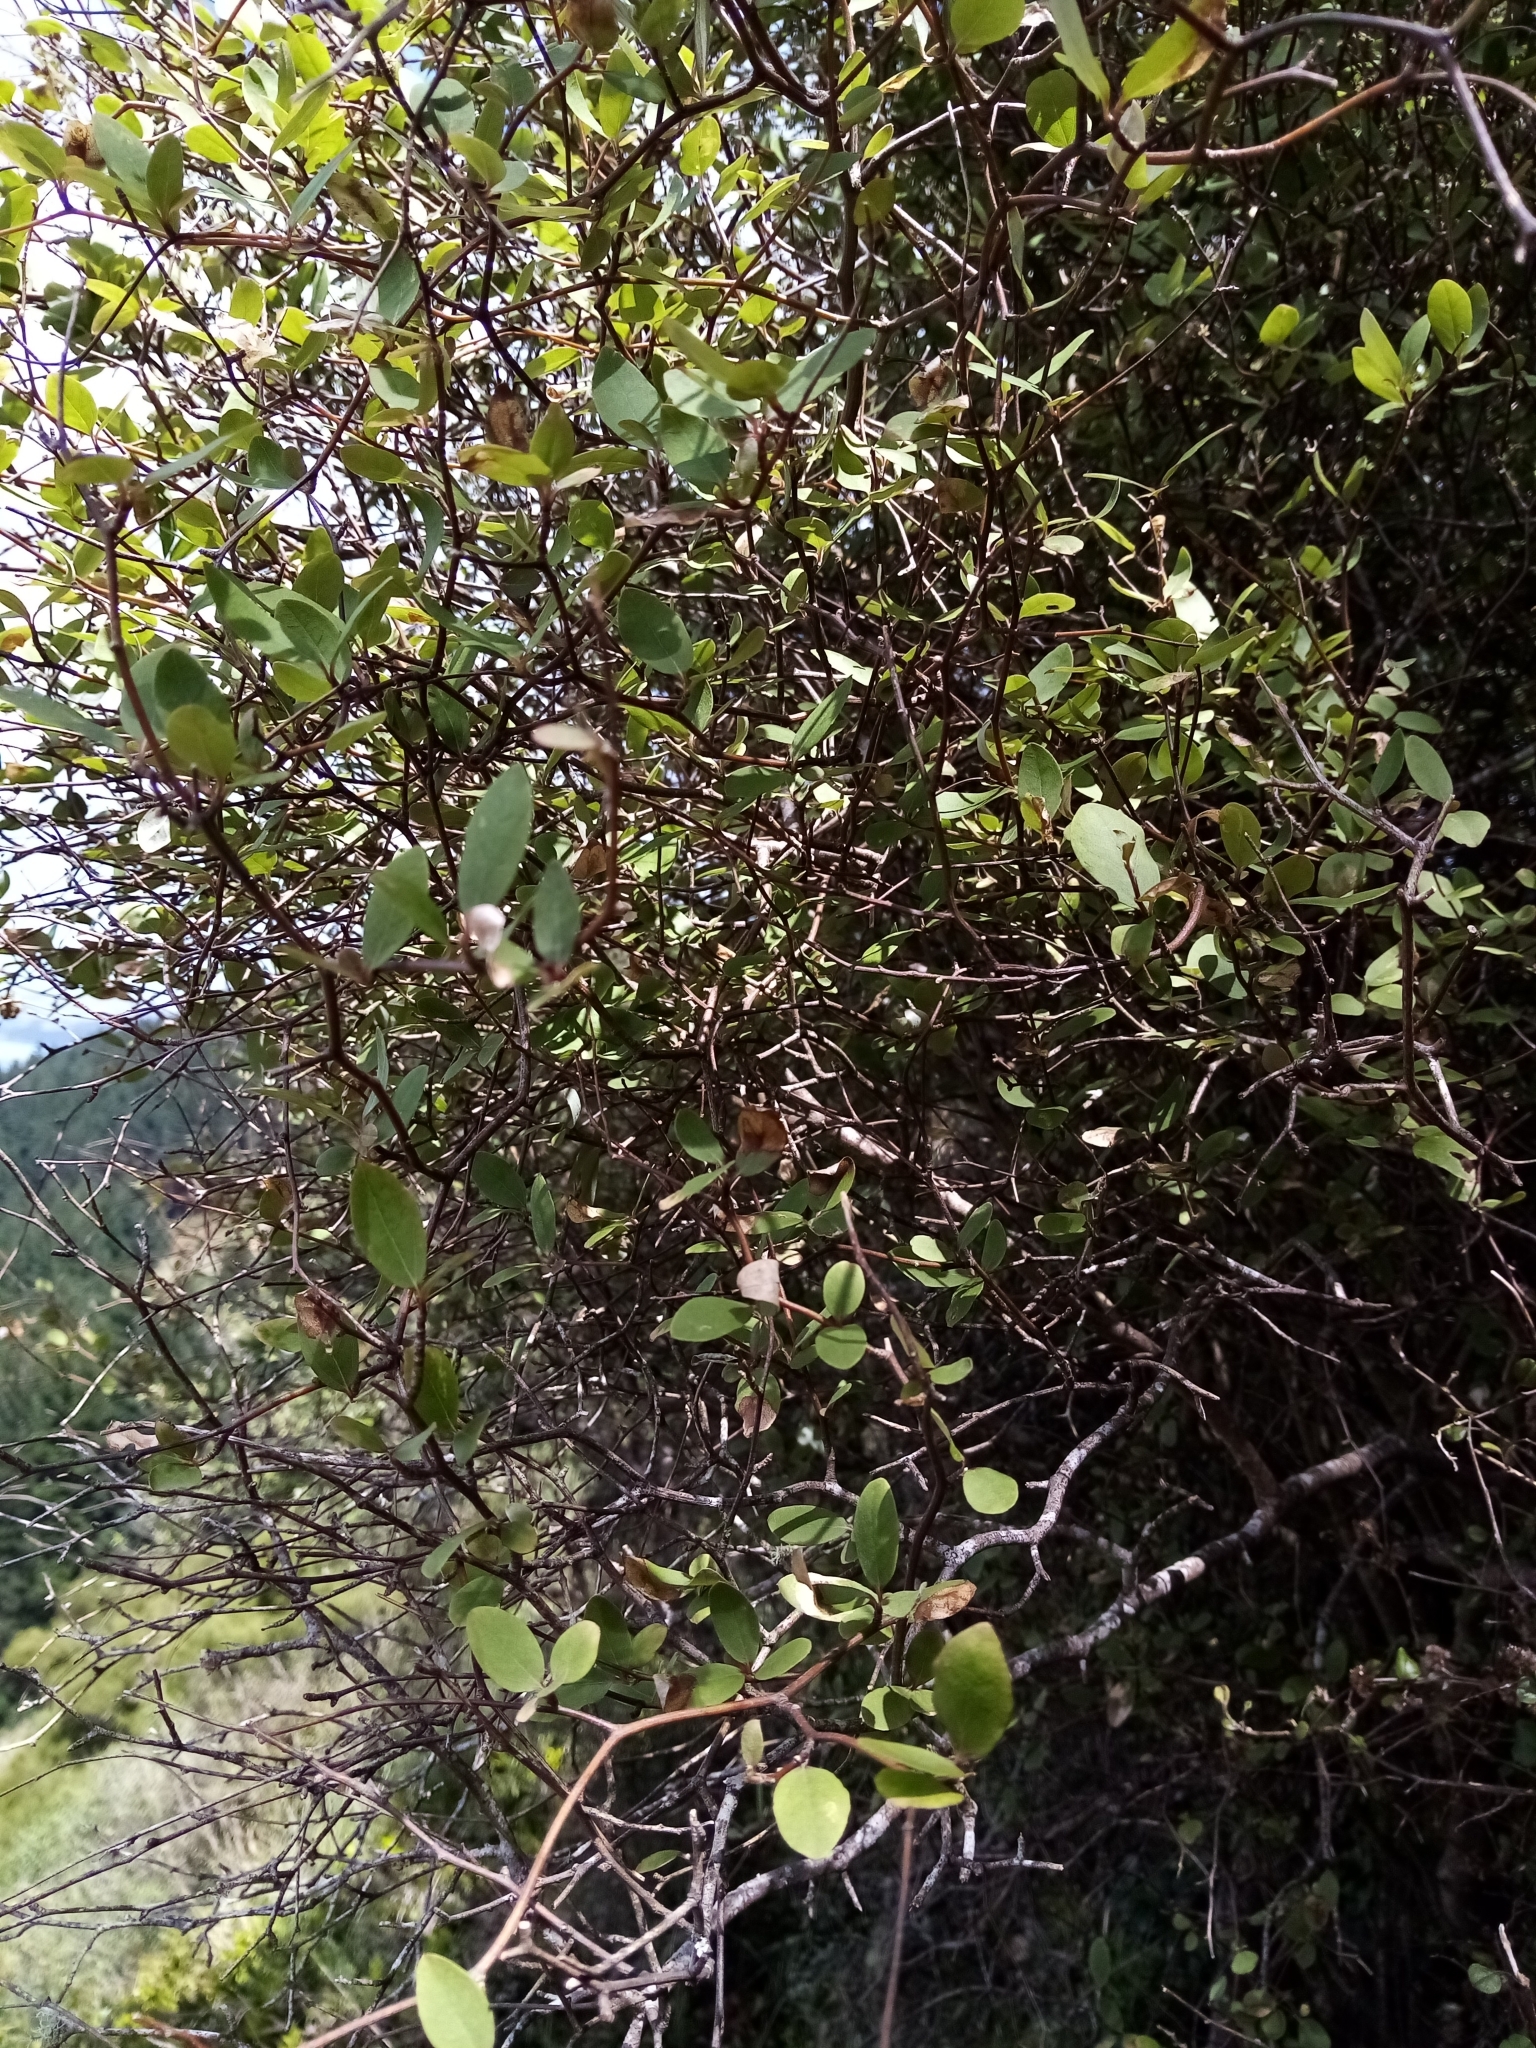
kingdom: Plantae
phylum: Tracheophyta
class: Magnoliopsida
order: Asterales
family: Asteraceae
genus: Olearia
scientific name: Olearia fragrantissima
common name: Fragrant tree daisy
